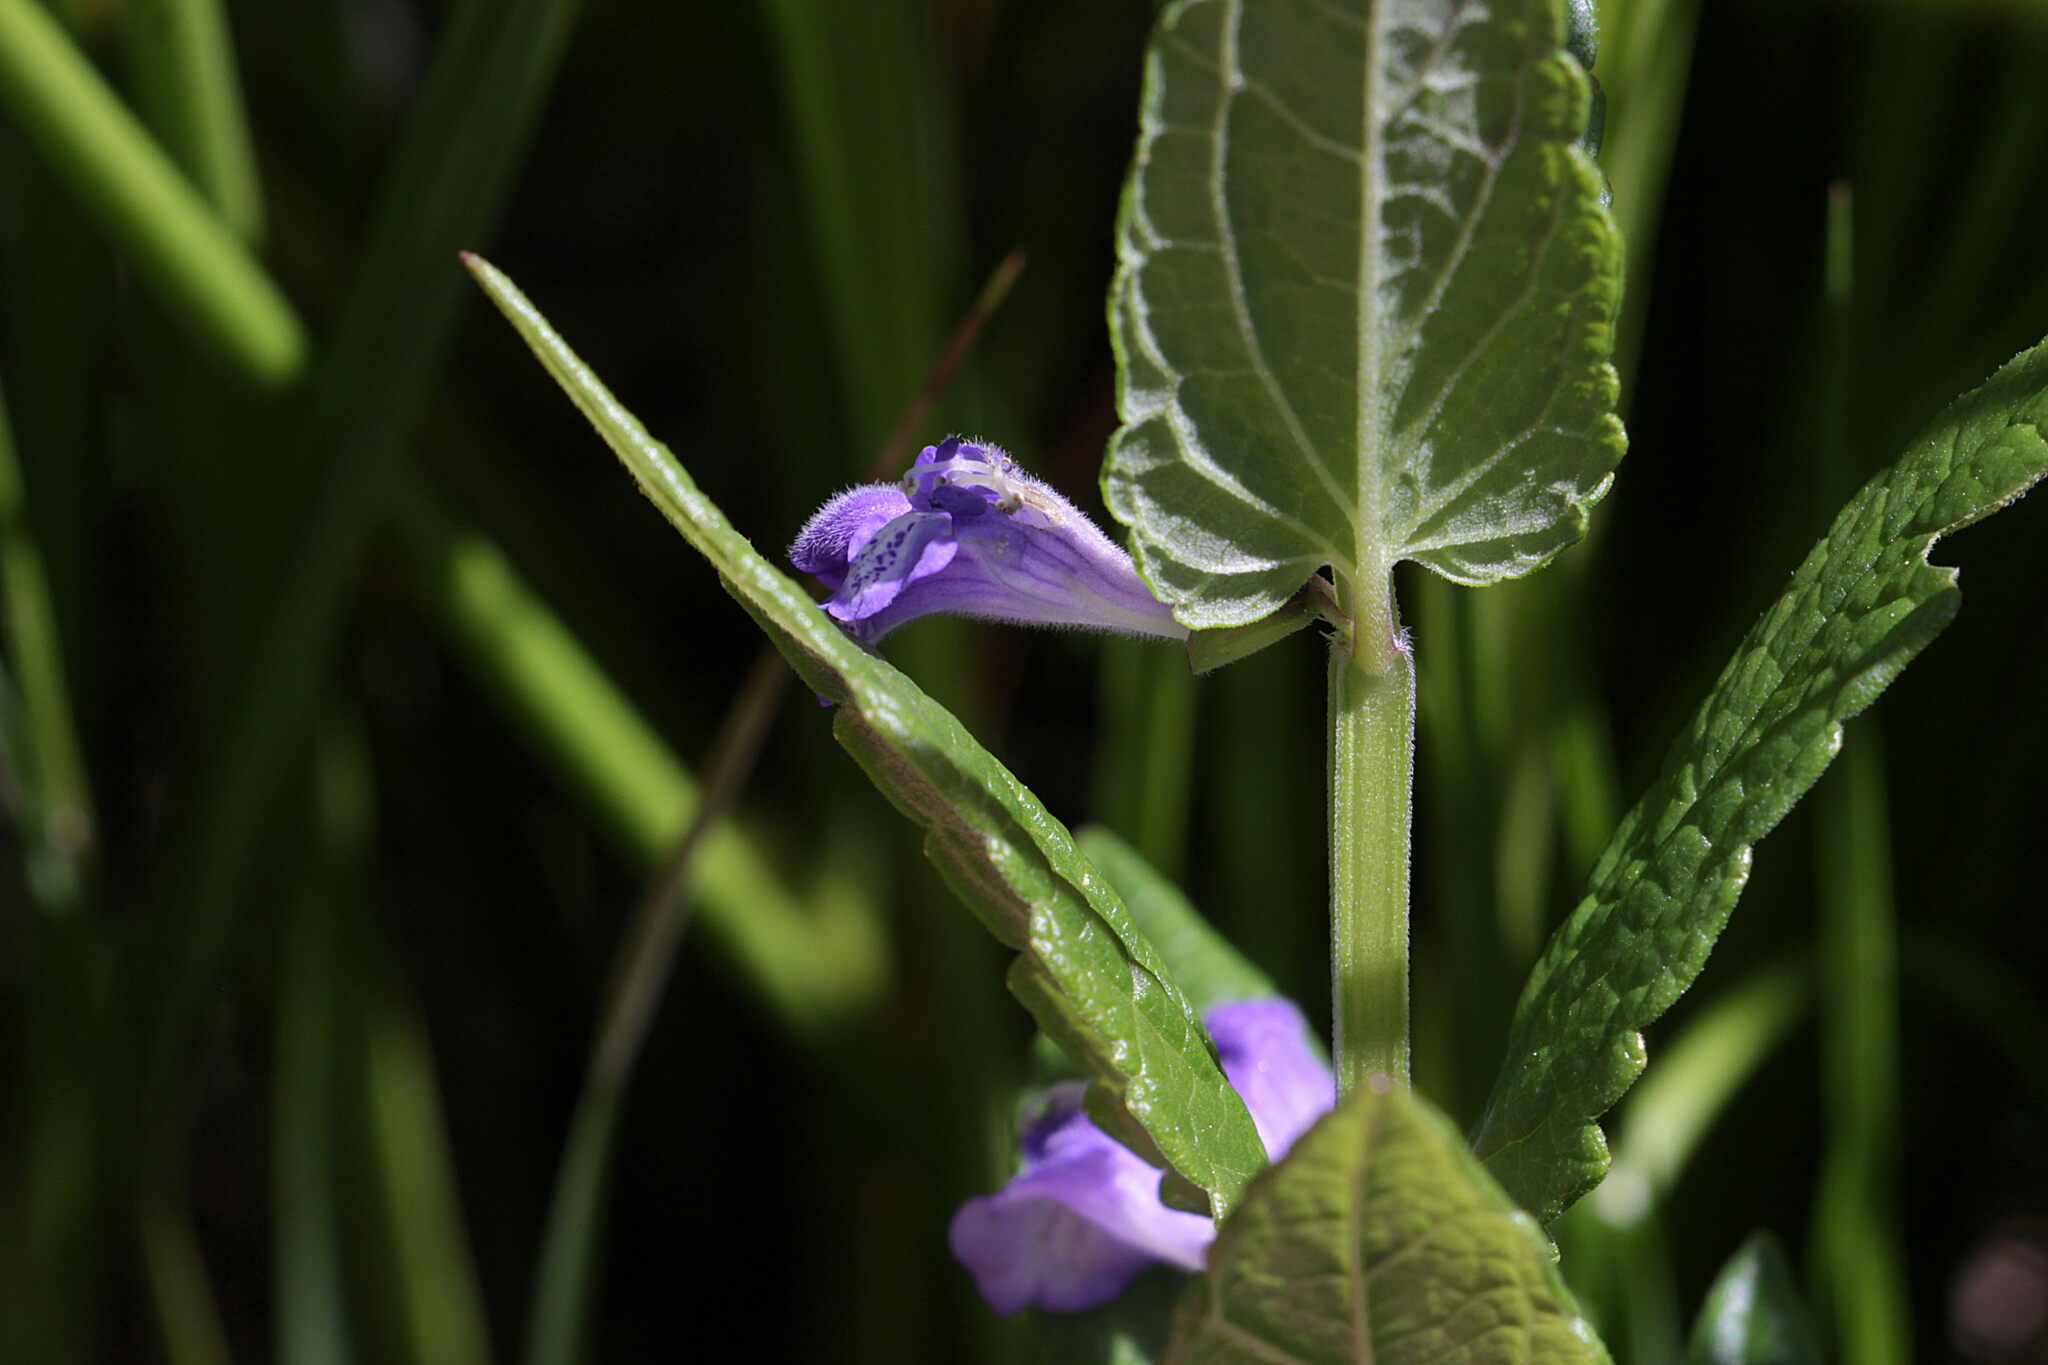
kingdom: Plantae
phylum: Tracheophyta
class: Magnoliopsida
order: Lamiales
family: Lamiaceae
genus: Scutellaria
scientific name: Scutellaria galericulata
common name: Skullcap
